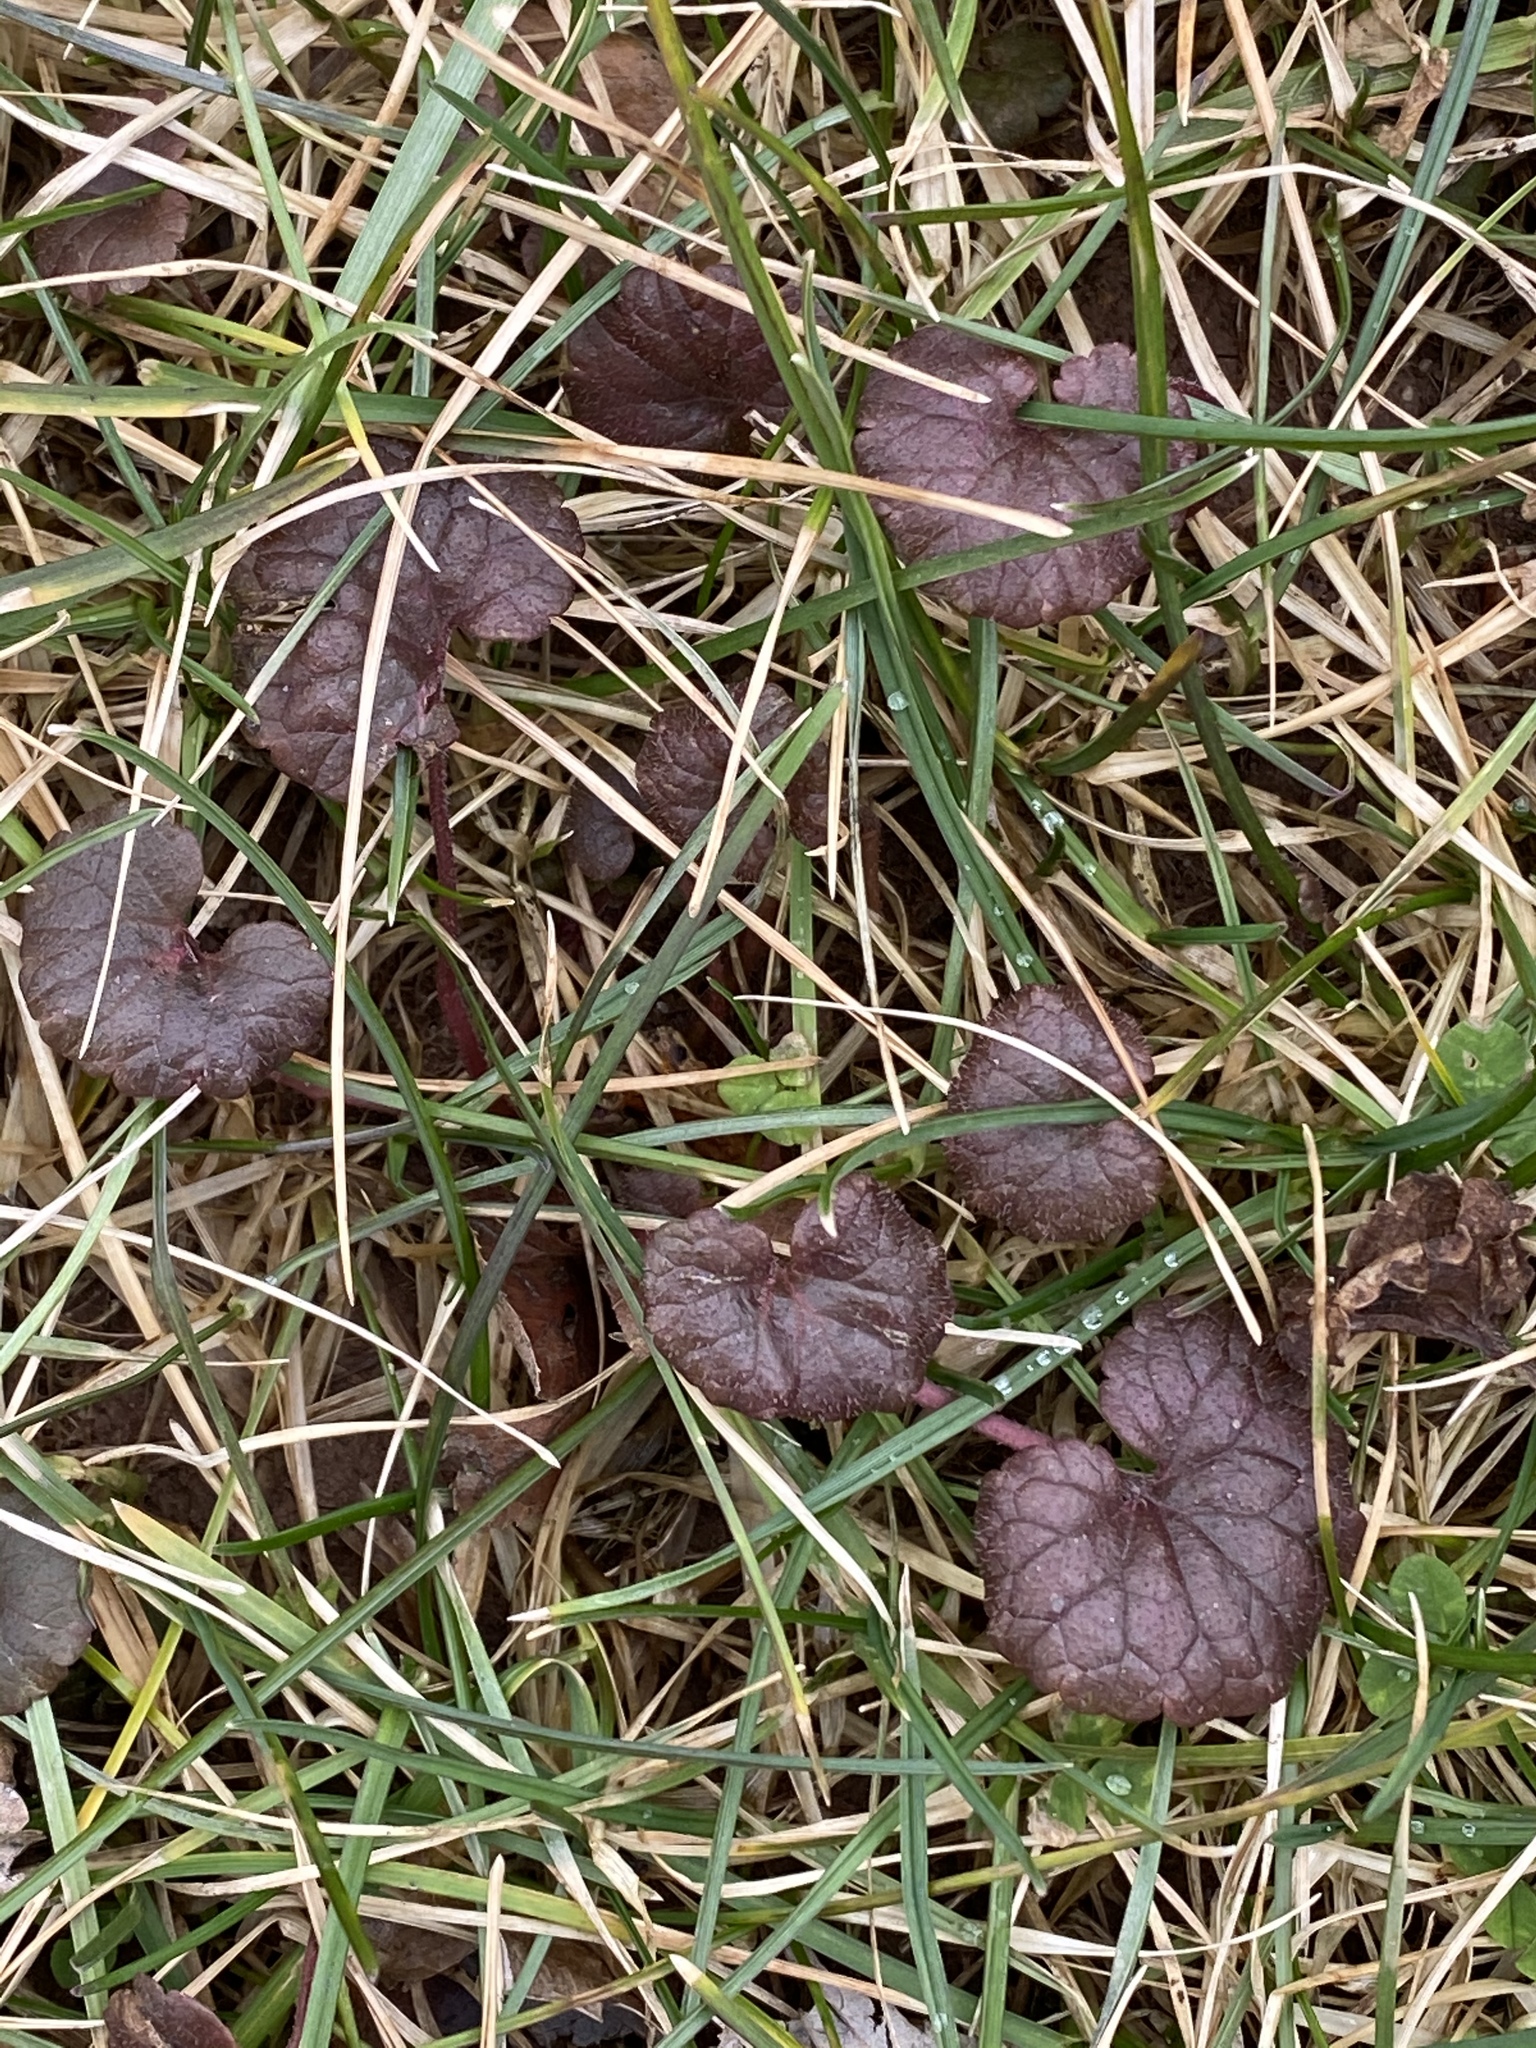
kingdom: Plantae
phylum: Tracheophyta
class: Magnoliopsida
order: Lamiales
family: Lamiaceae
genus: Glechoma
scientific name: Glechoma hederacea
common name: Ground ivy
